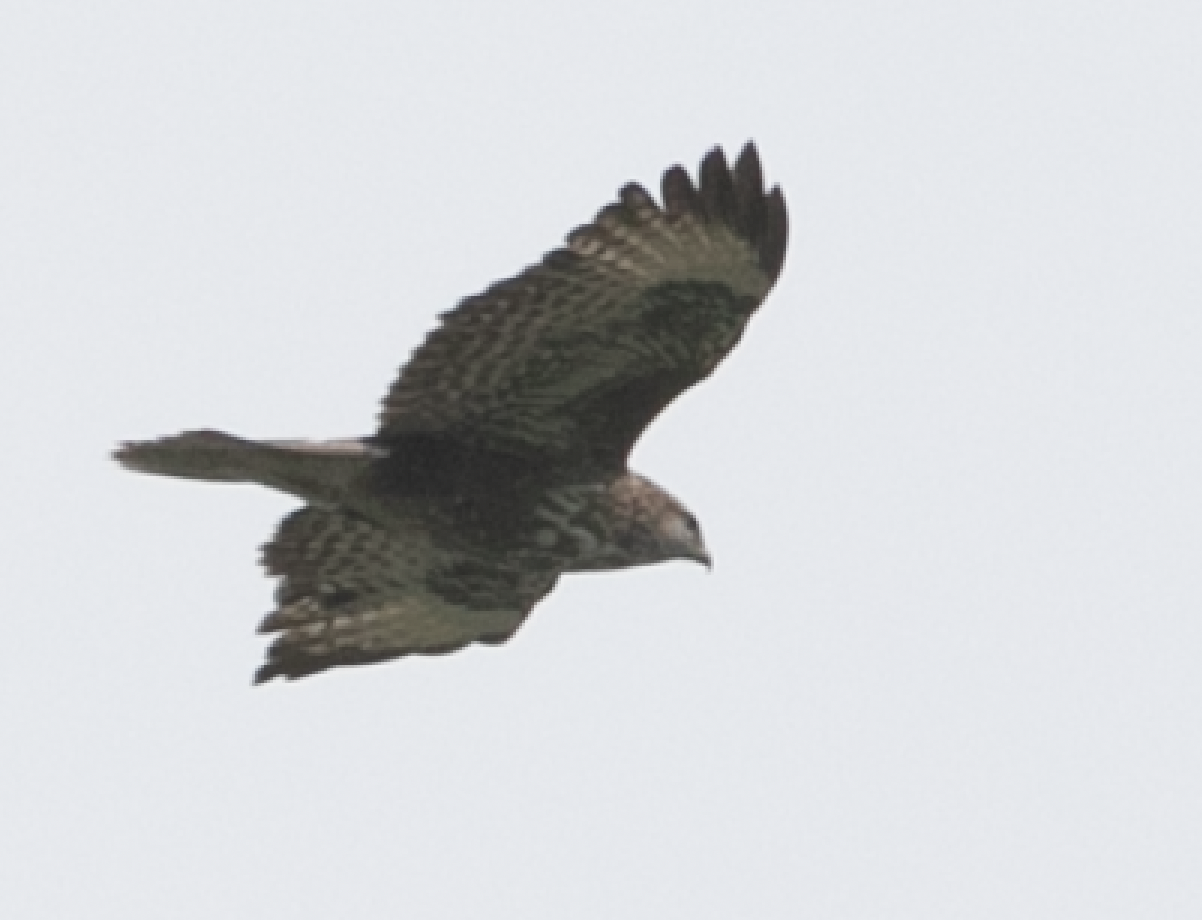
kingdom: Animalia
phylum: Chordata
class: Aves
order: Accipitriformes
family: Accipitridae
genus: Buteo
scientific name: Buteo buteo
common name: Common buzzard
